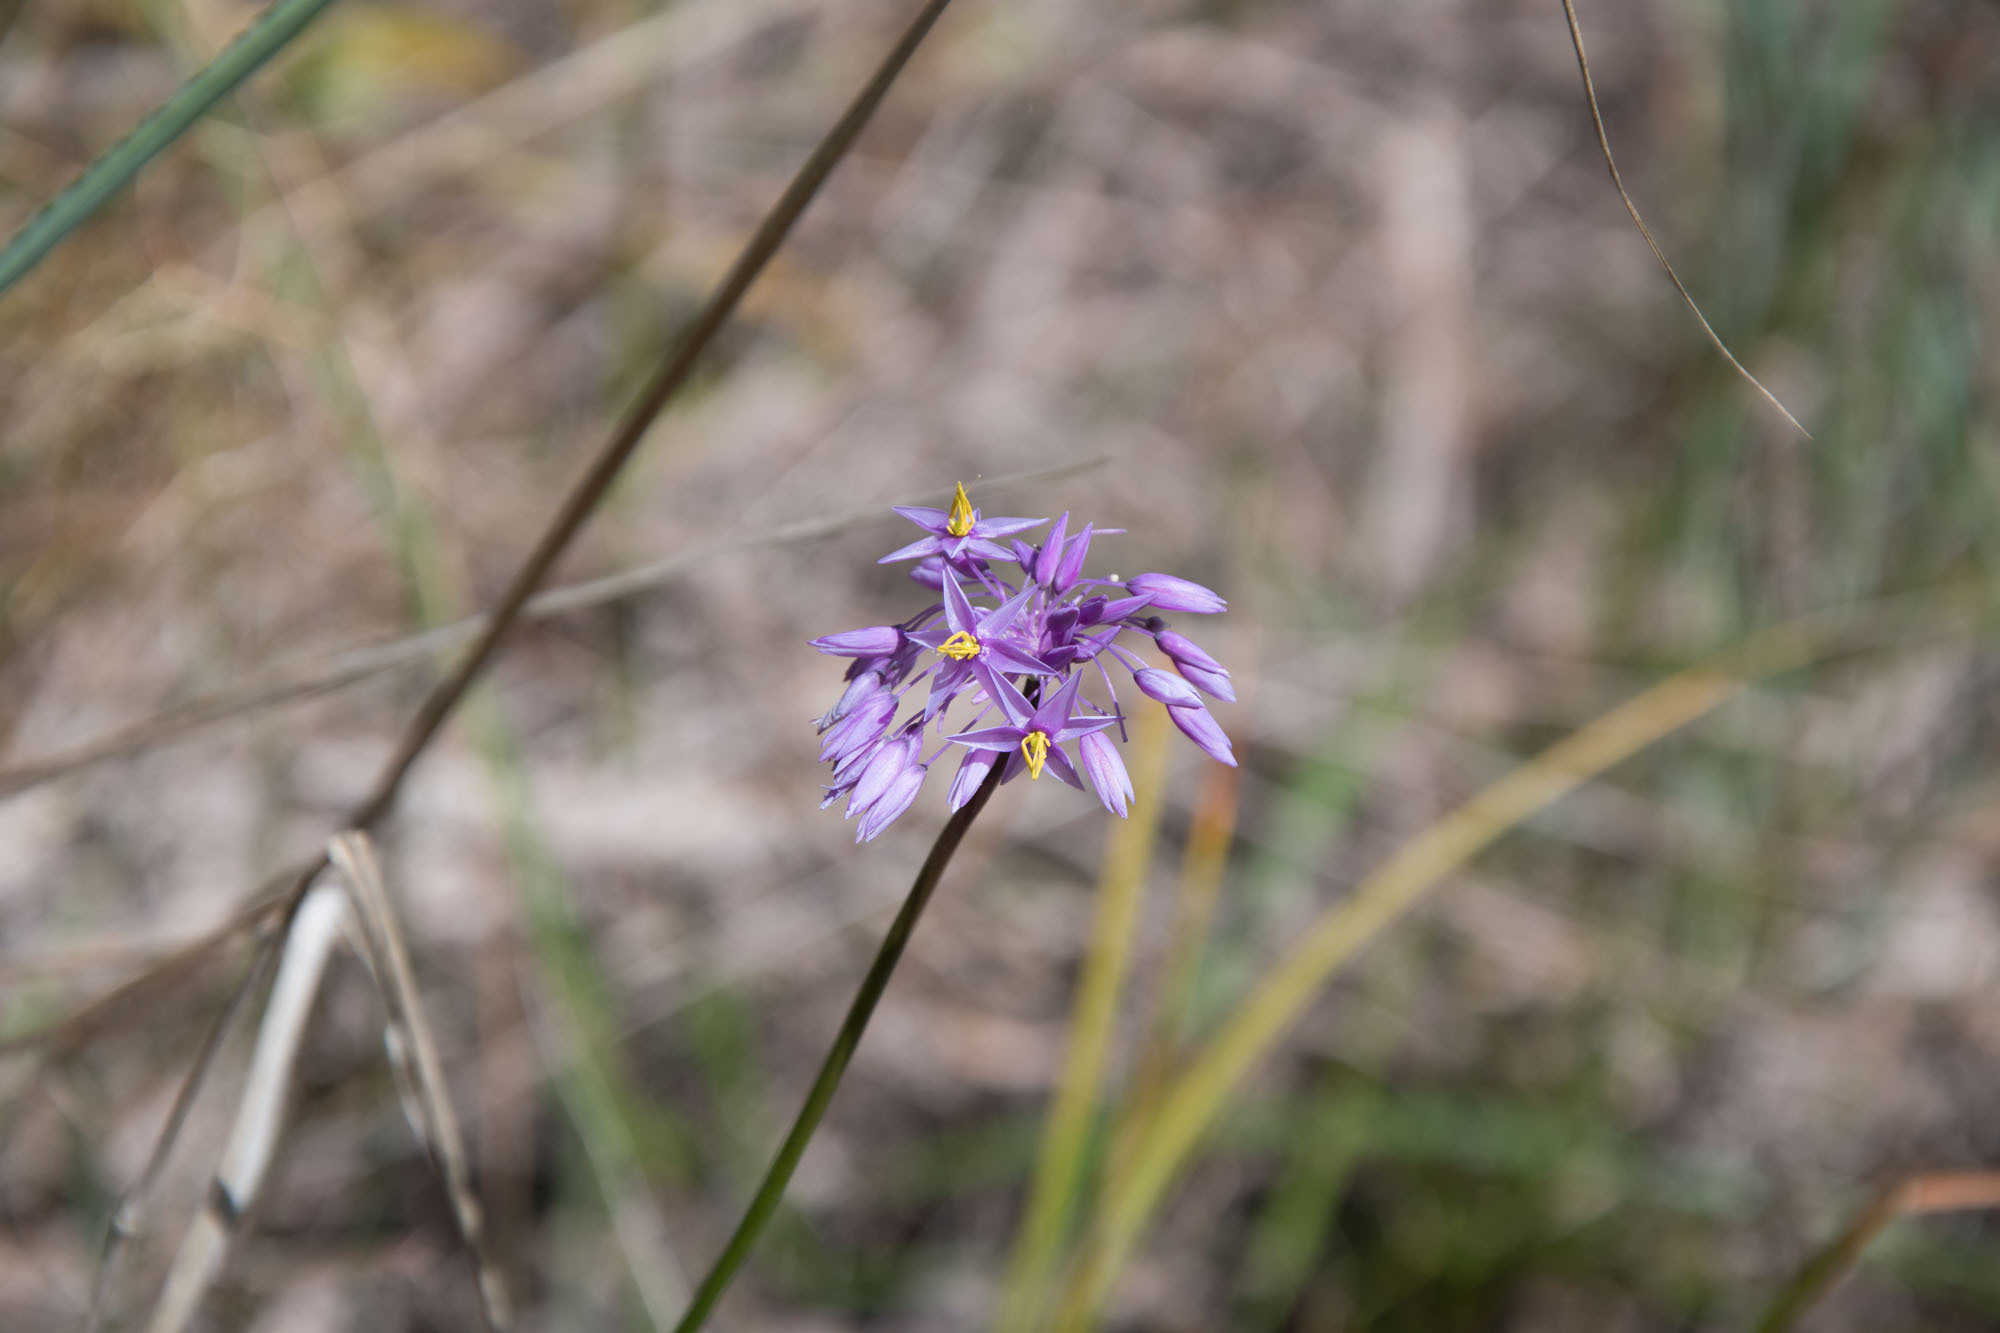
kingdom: Plantae
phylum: Tracheophyta
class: Liliopsida
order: Asparagales
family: Asparagaceae
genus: Sowerbaea
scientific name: Sowerbaea laxiflora
